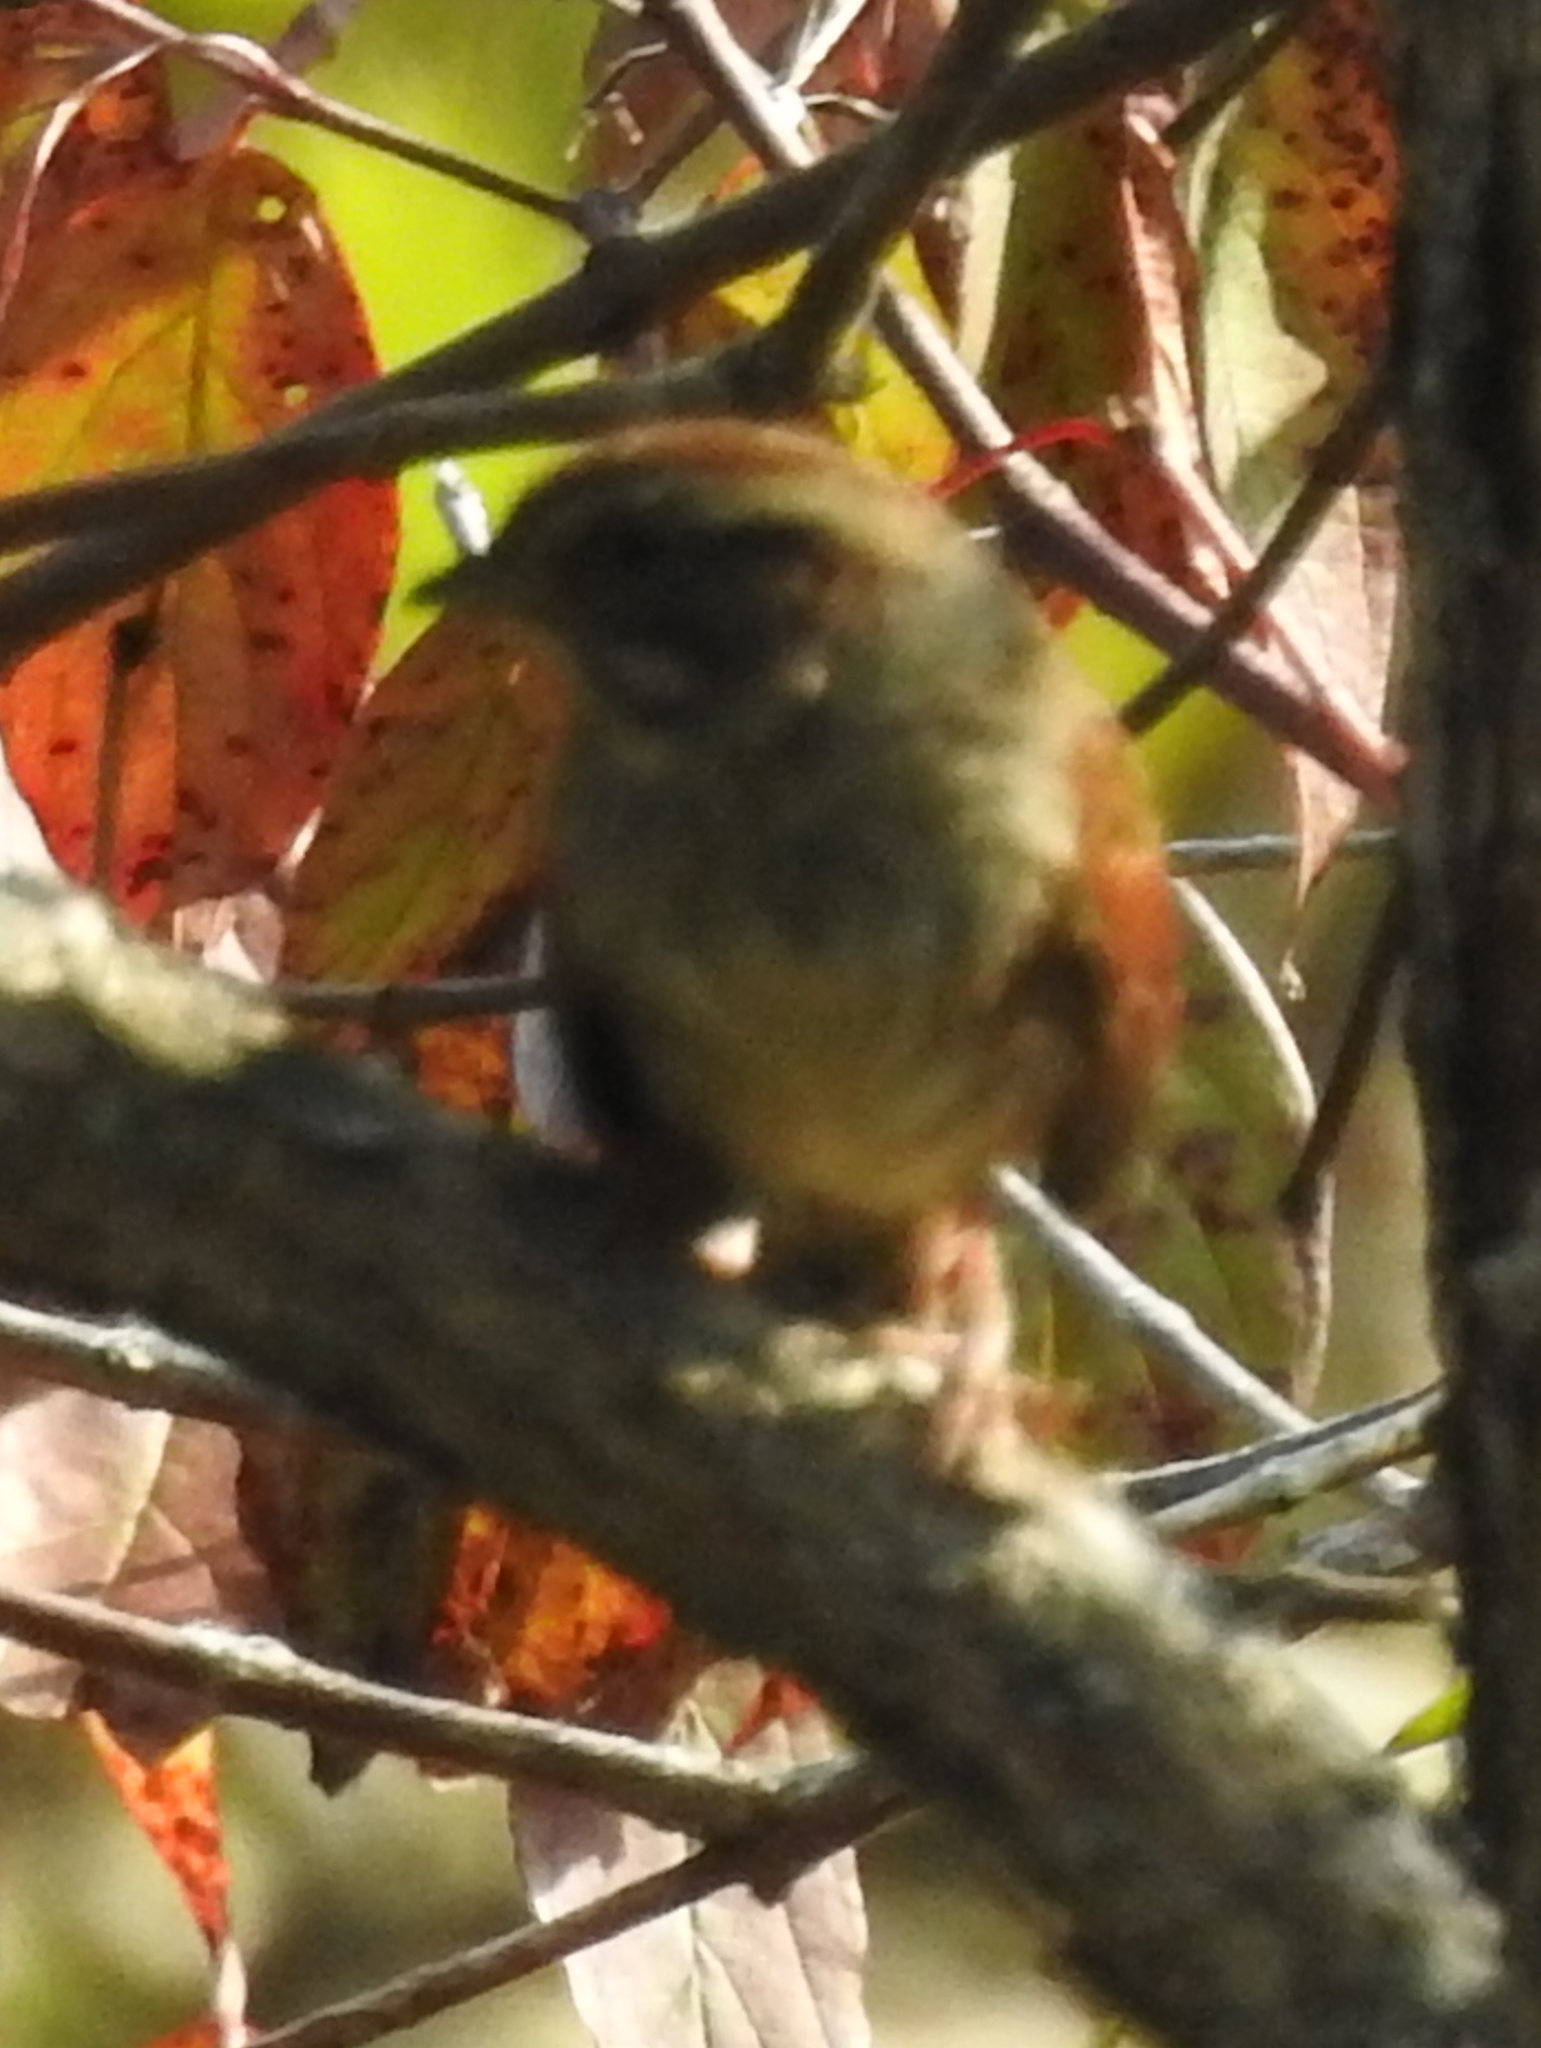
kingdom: Animalia
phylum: Chordata
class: Aves
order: Passeriformes
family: Passerellidae
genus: Melospiza
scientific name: Melospiza georgiana
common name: Swamp sparrow
